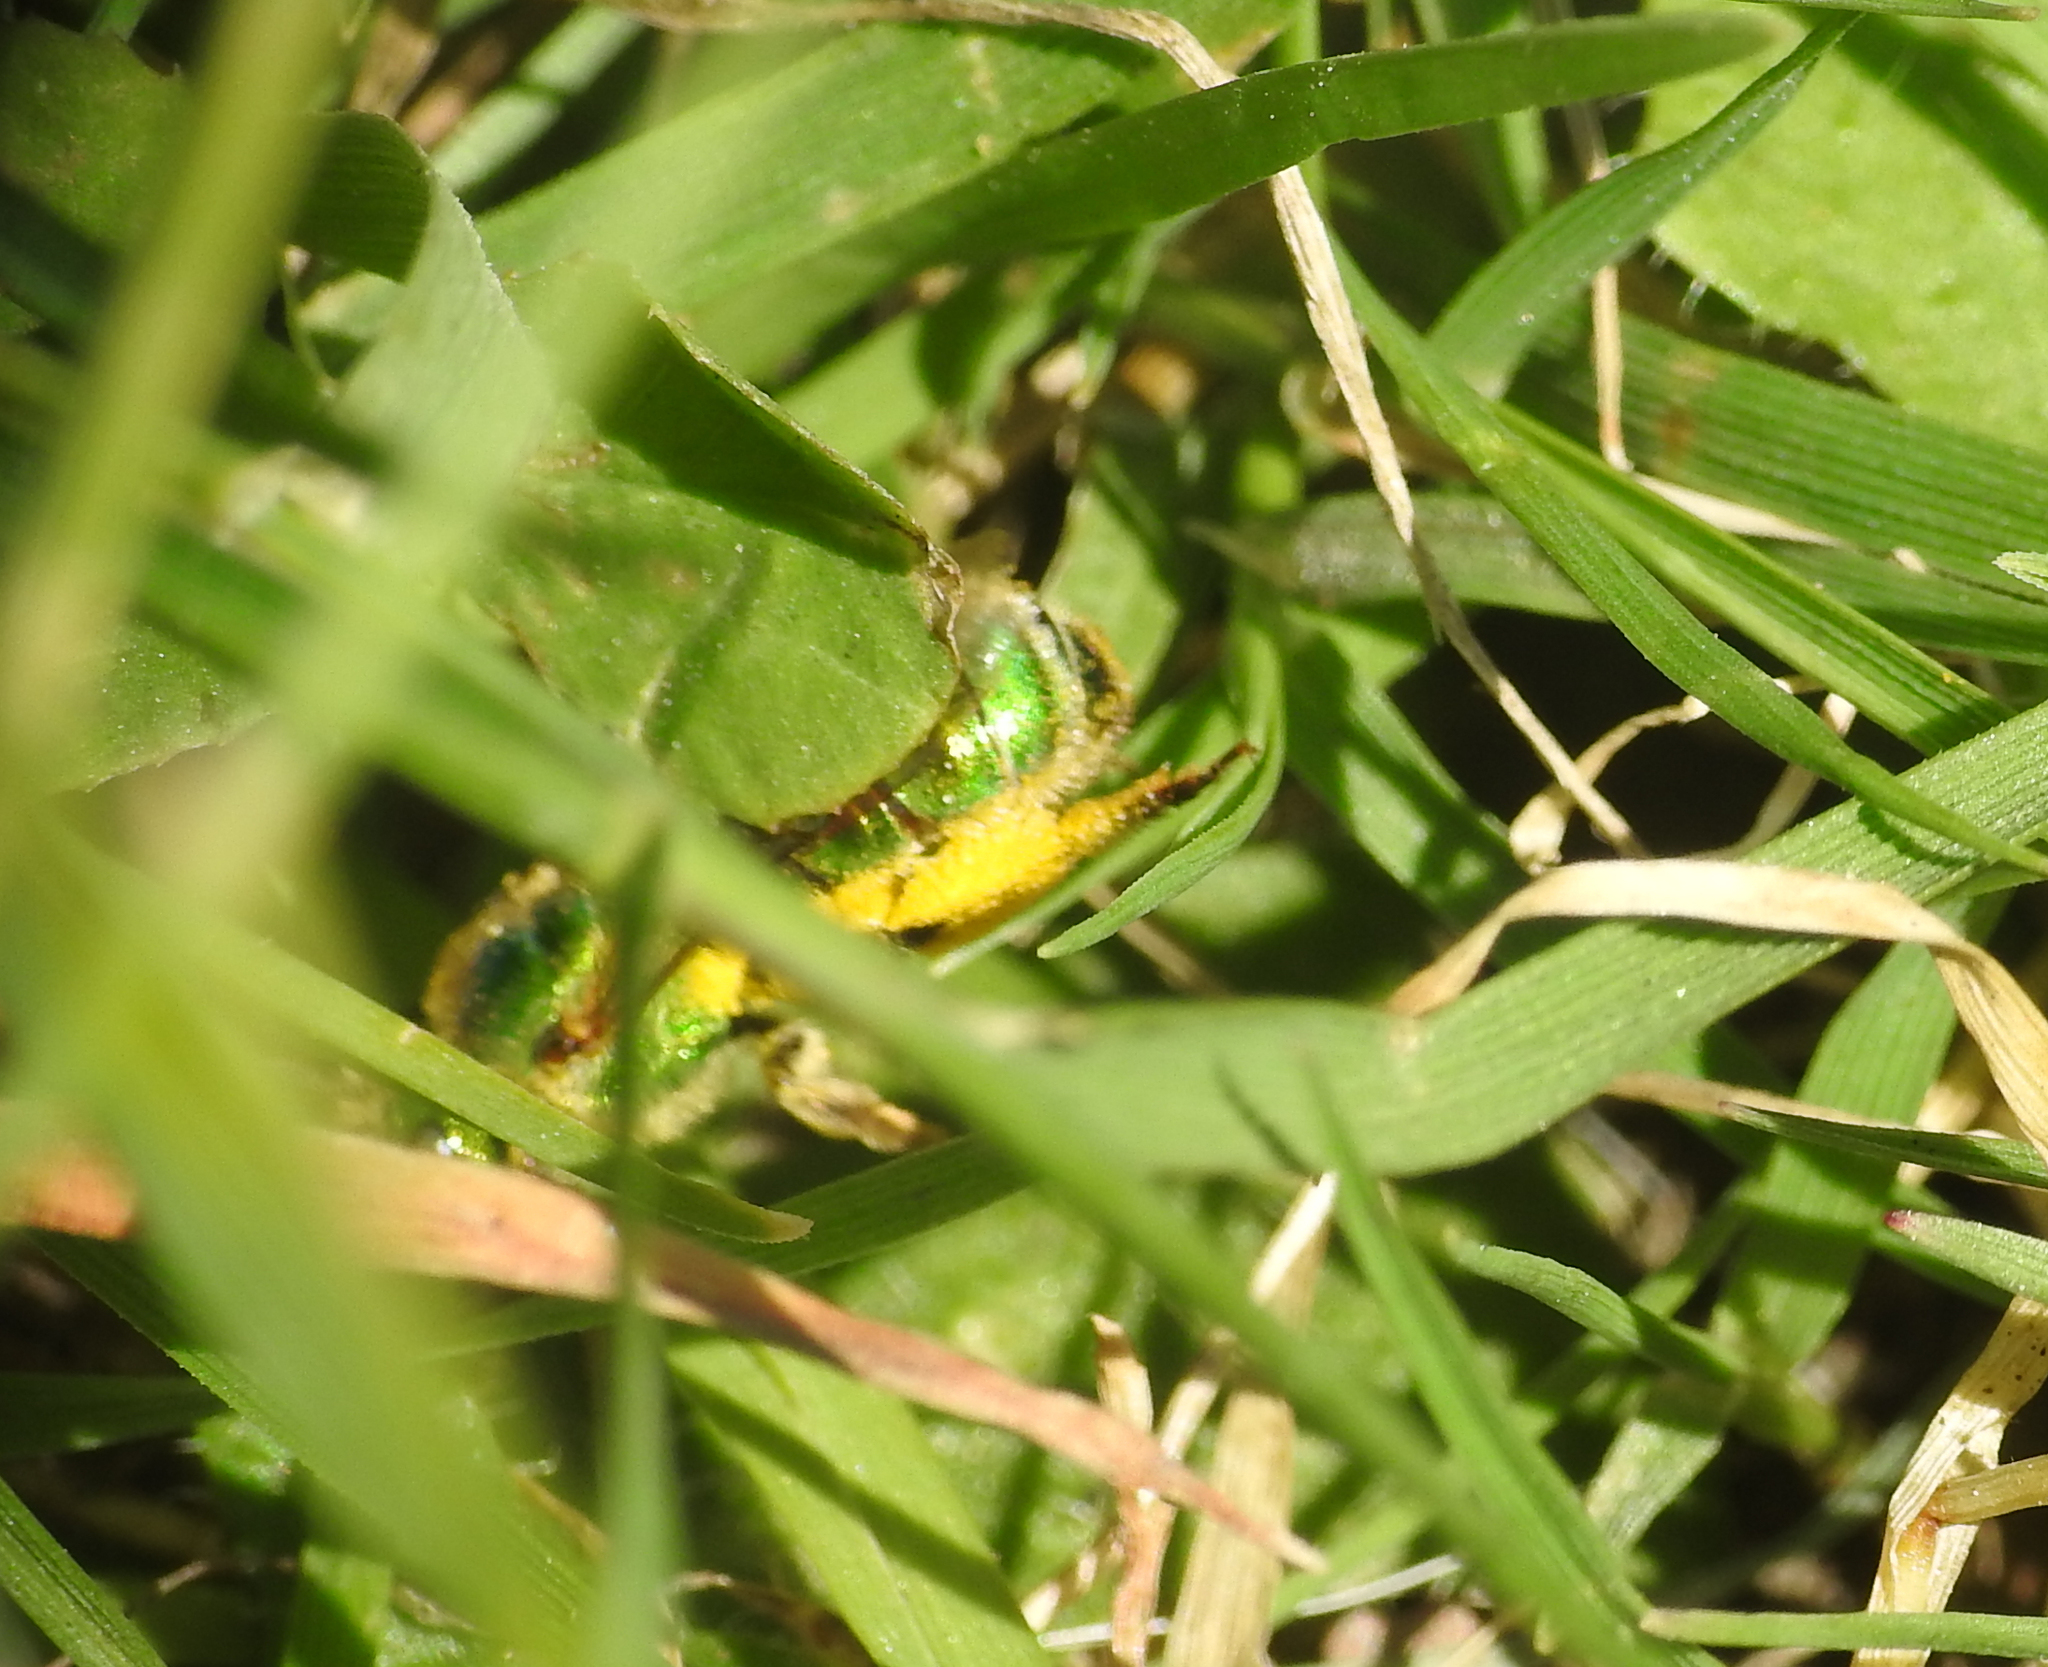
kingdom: Animalia
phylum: Arthropoda
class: Insecta
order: Hymenoptera
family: Halictidae
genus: Agapostemon
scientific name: Agapostemon texanus
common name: Texas striped sweat bee
